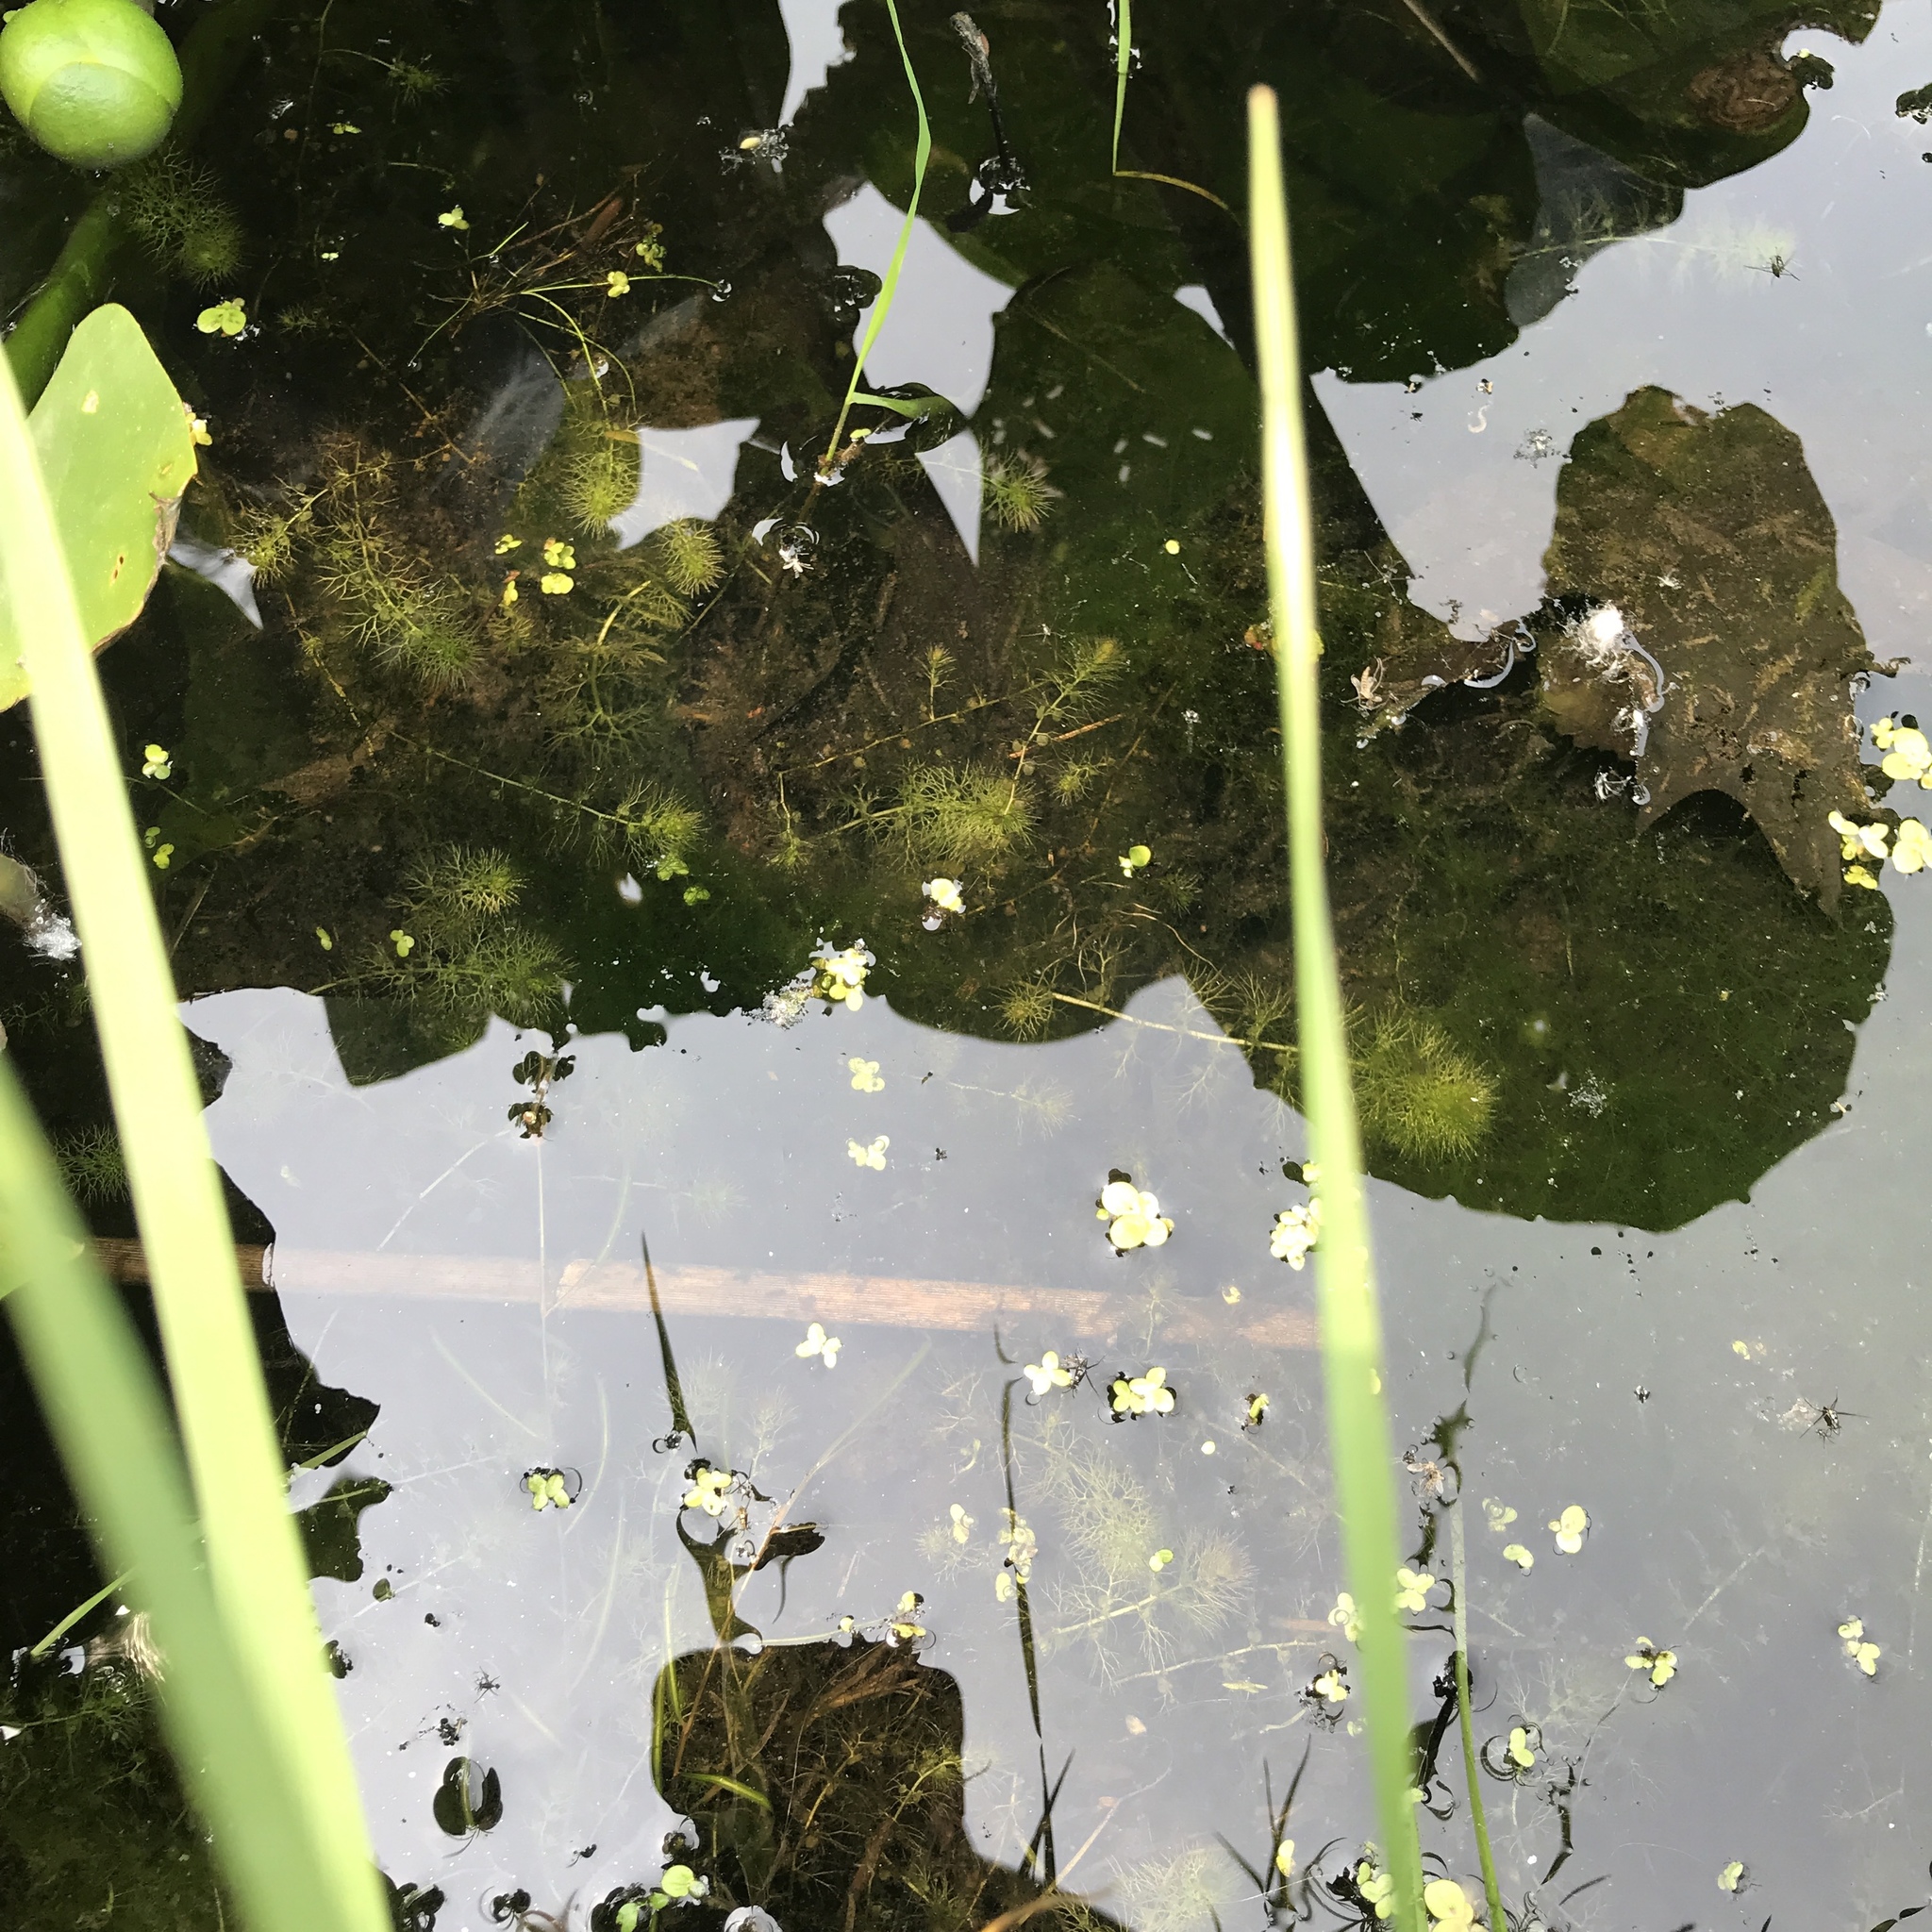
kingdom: Plantae
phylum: Tracheophyta
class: Liliopsida
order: Alismatales
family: Araceae
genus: Spirodela
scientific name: Spirodela polyrhiza
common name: Great duckweed
